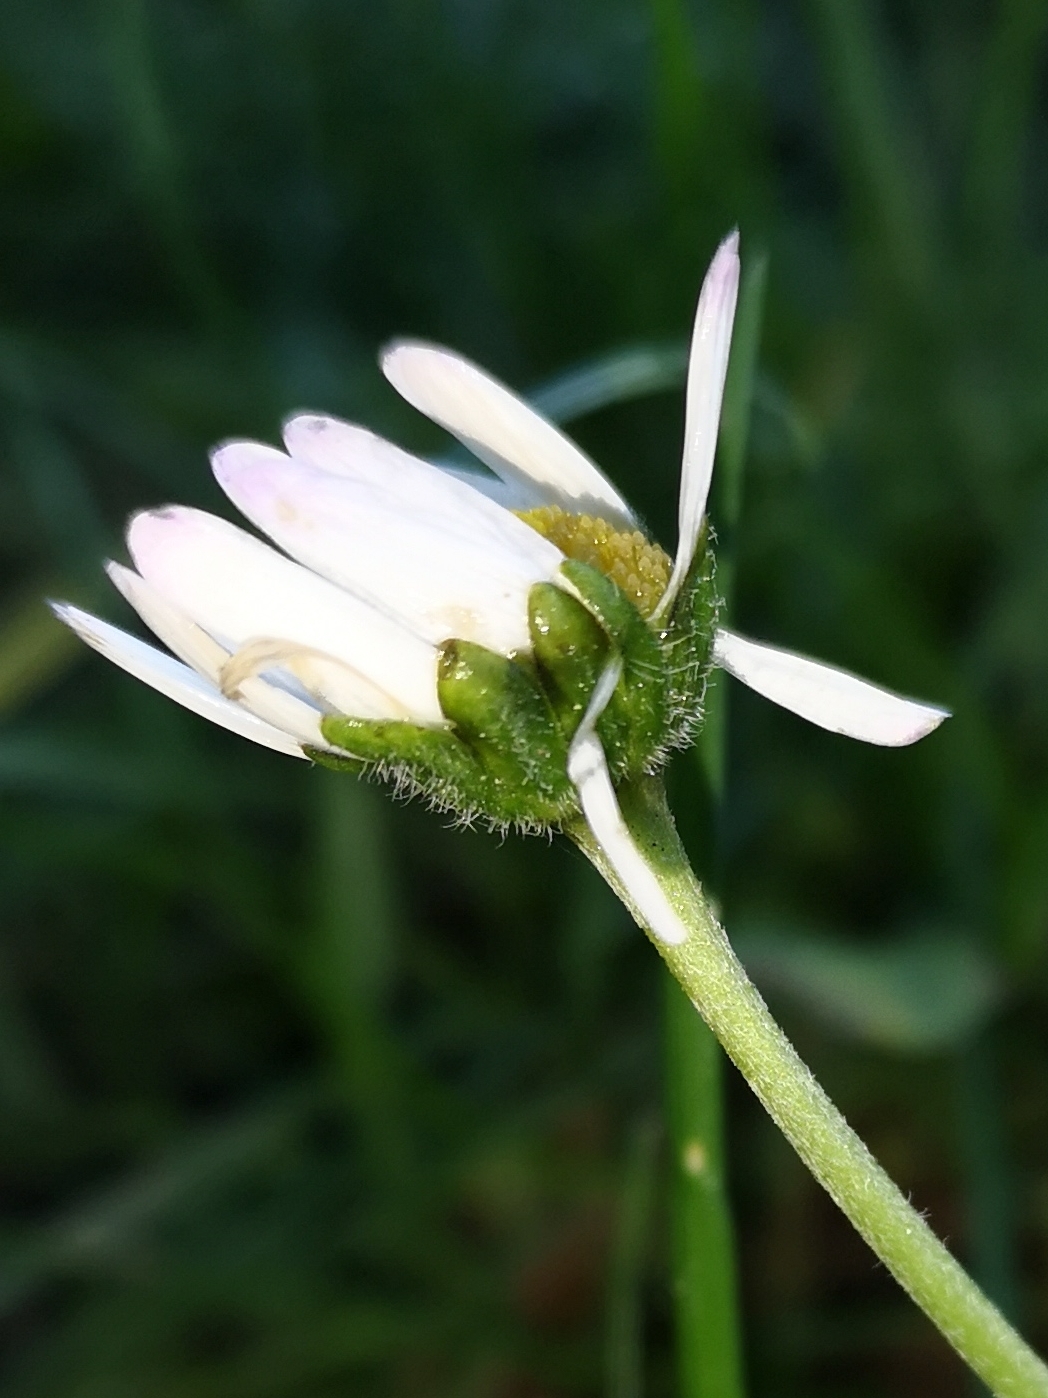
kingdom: Plantae
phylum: Tracheophyta
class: Magnoliopsida
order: Asterales
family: Asteraceae
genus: Bellis
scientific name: Bellis perennis
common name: Lawndaisy
